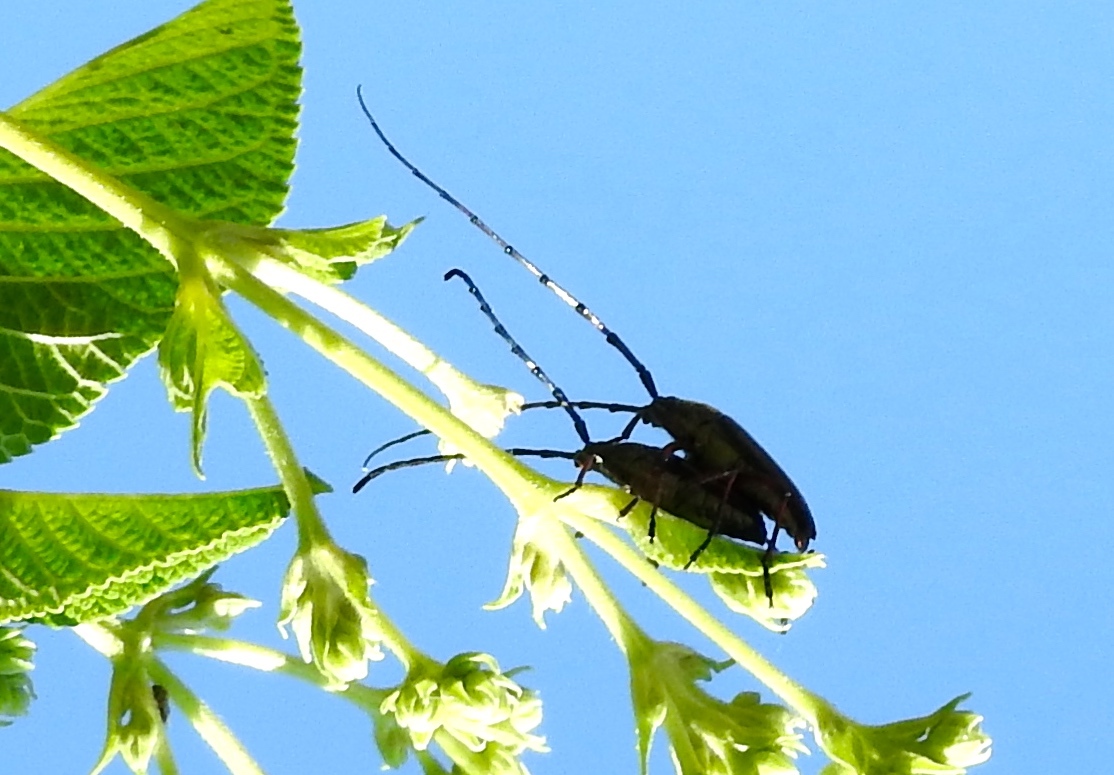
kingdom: Animalia
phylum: Arthropoda
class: Insecta
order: Coleoptera
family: Cerambycidae
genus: Stenosphenus
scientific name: Stenosphenus
